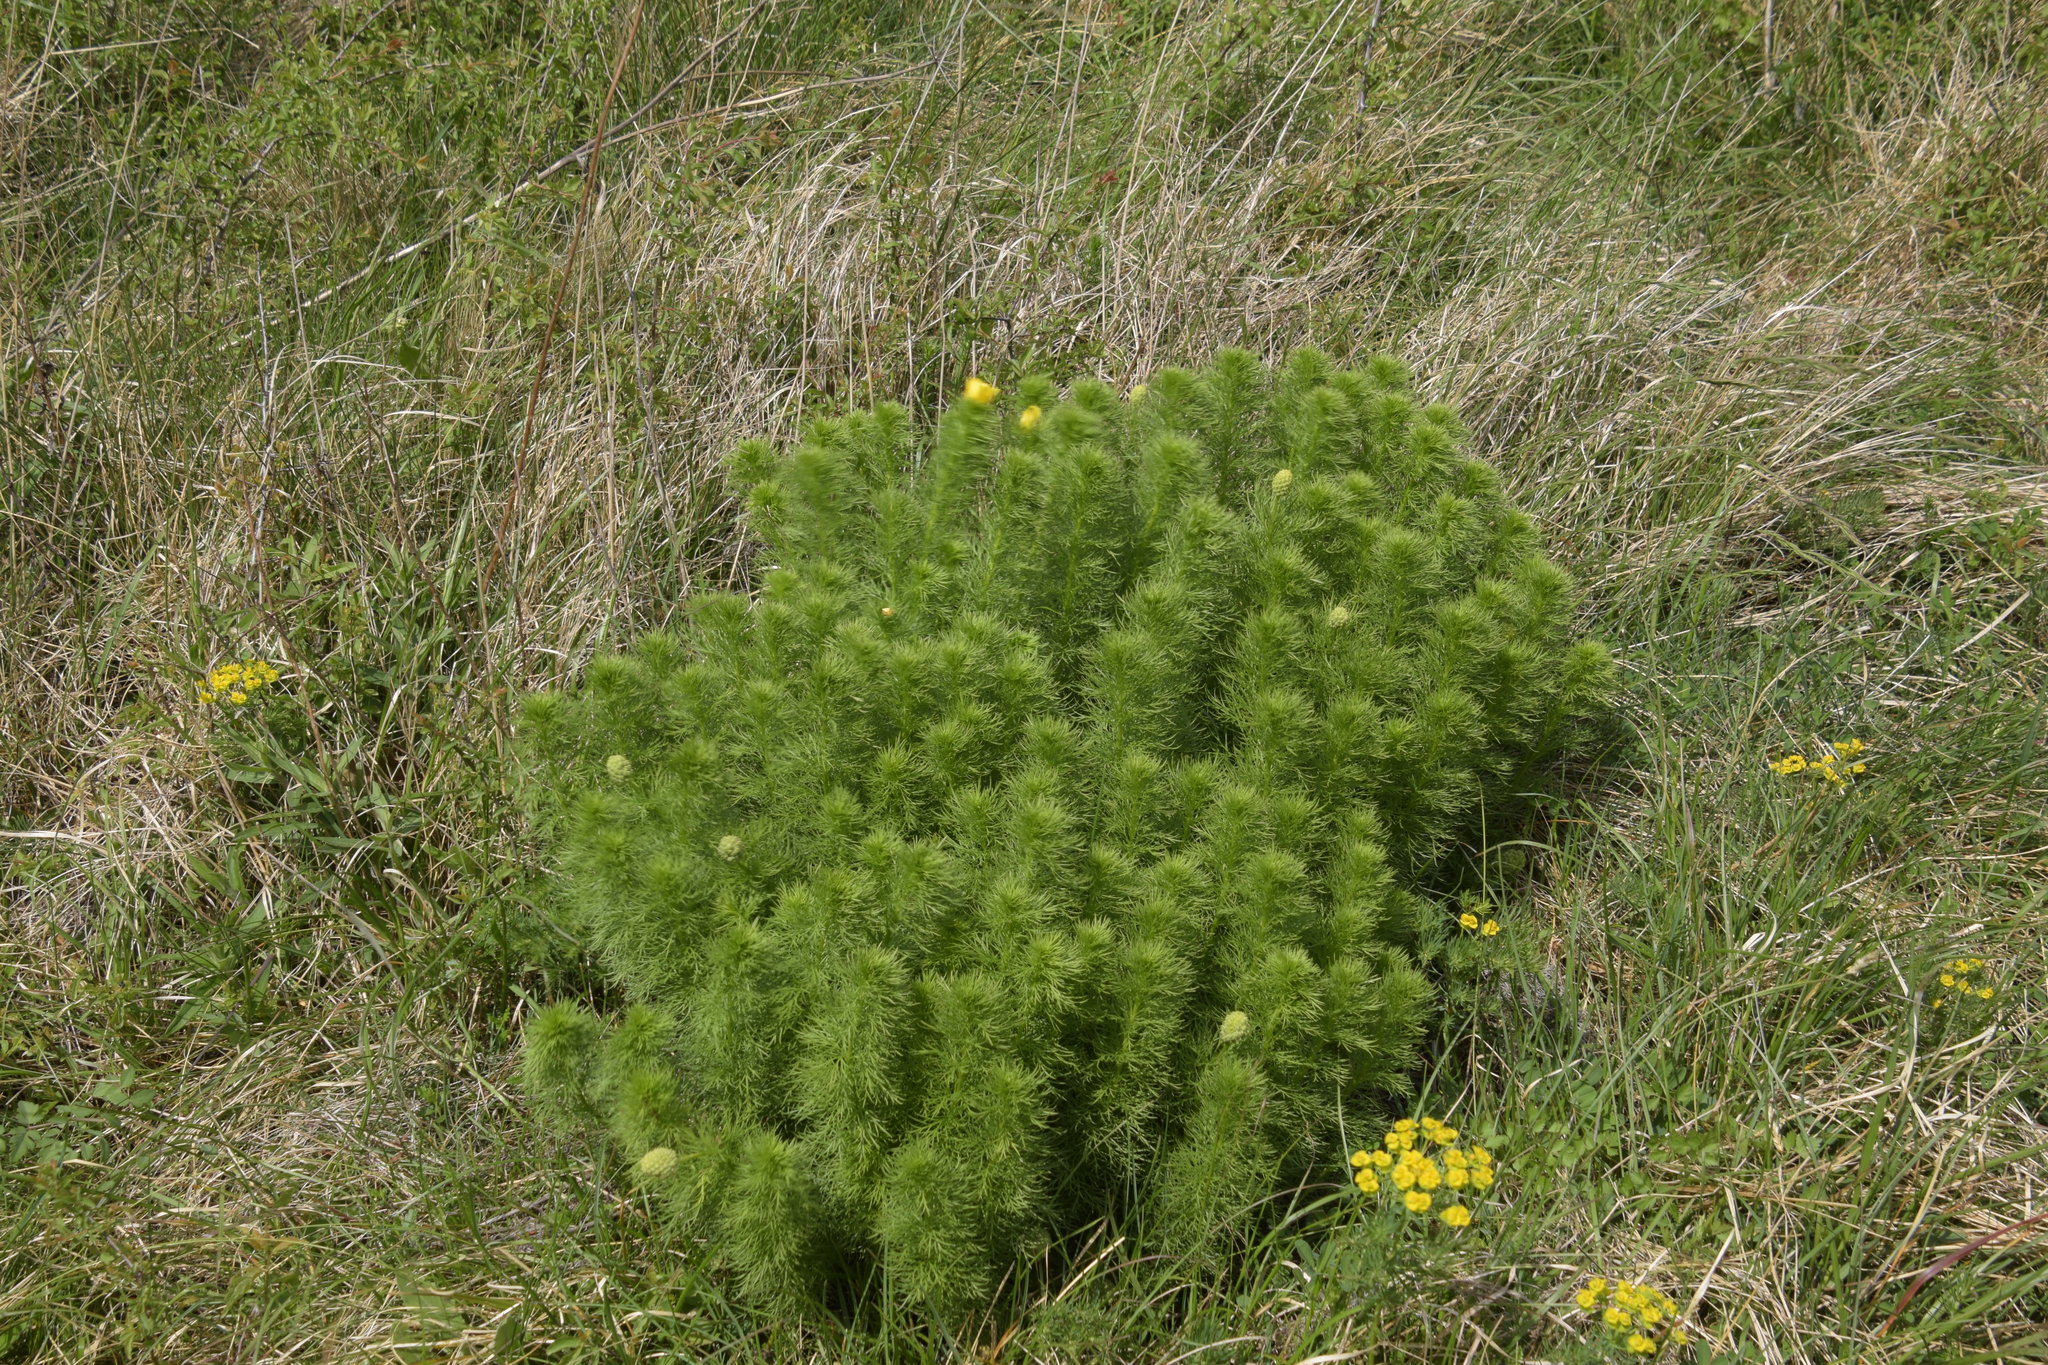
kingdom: Plantae
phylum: Tracheophyta
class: Magnoliopsida
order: Ranunculales
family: Ranunculaceae
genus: Adonis
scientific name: Adonis vernalis
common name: Yellow pheasants-eye
